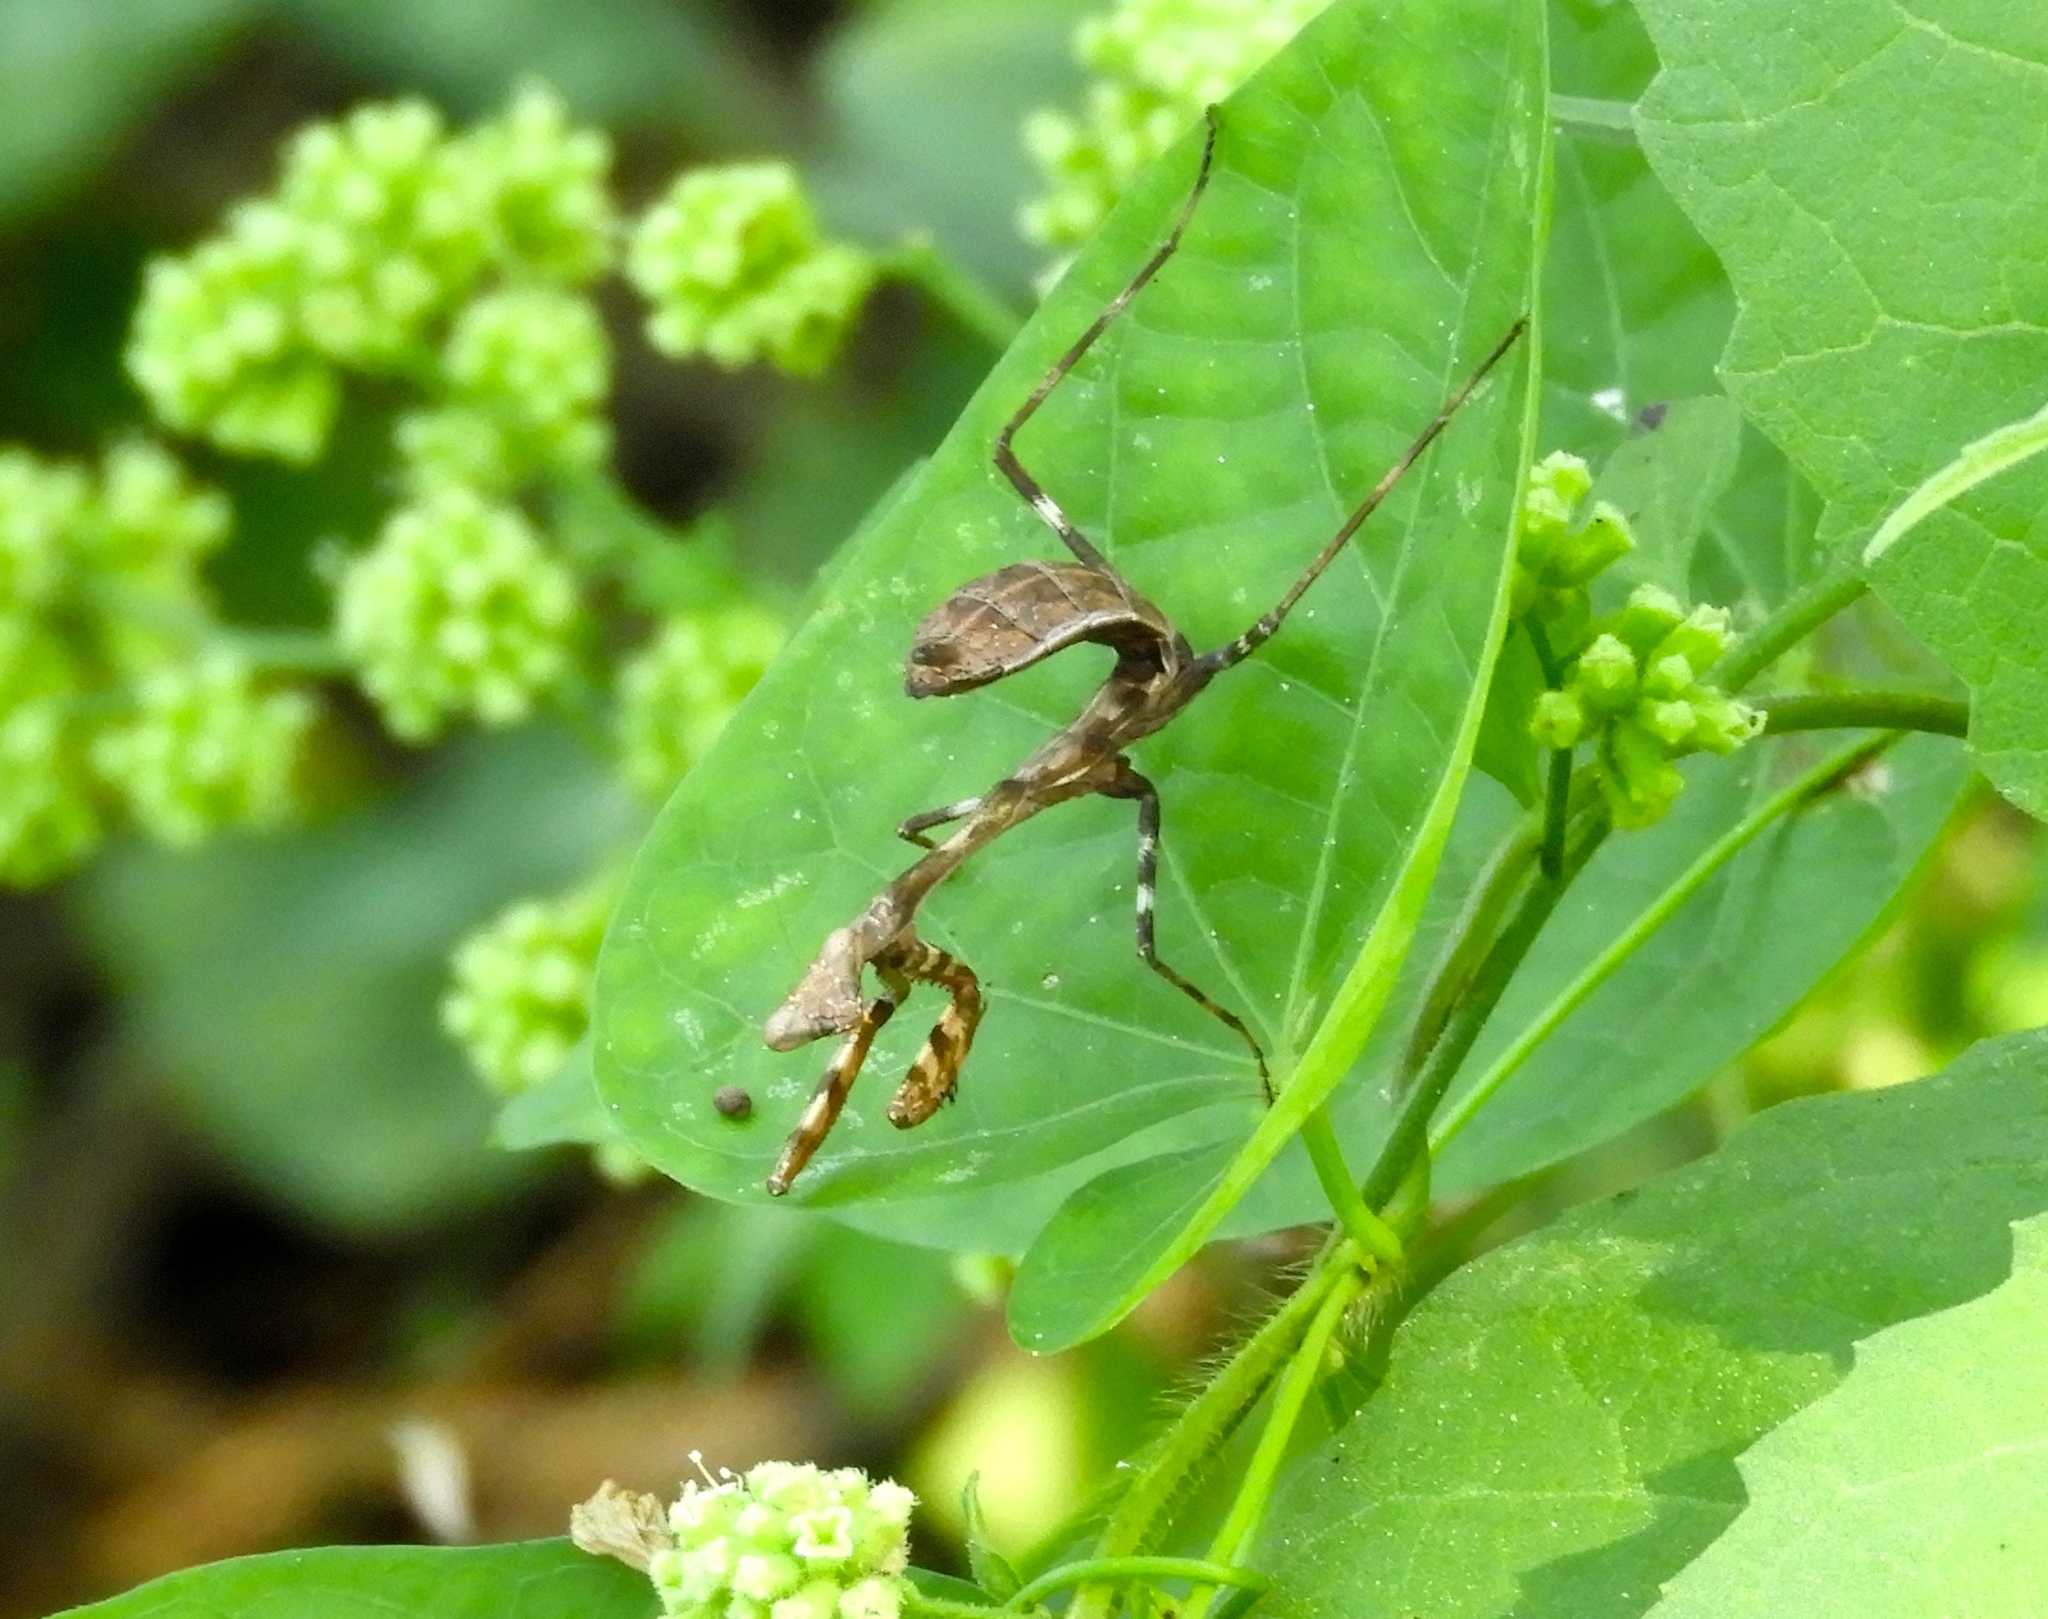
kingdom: Animalia
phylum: Arthropoda
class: Insecta
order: Mantodea
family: Mantidae
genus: Stagmomantis
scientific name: Stagmomantis
